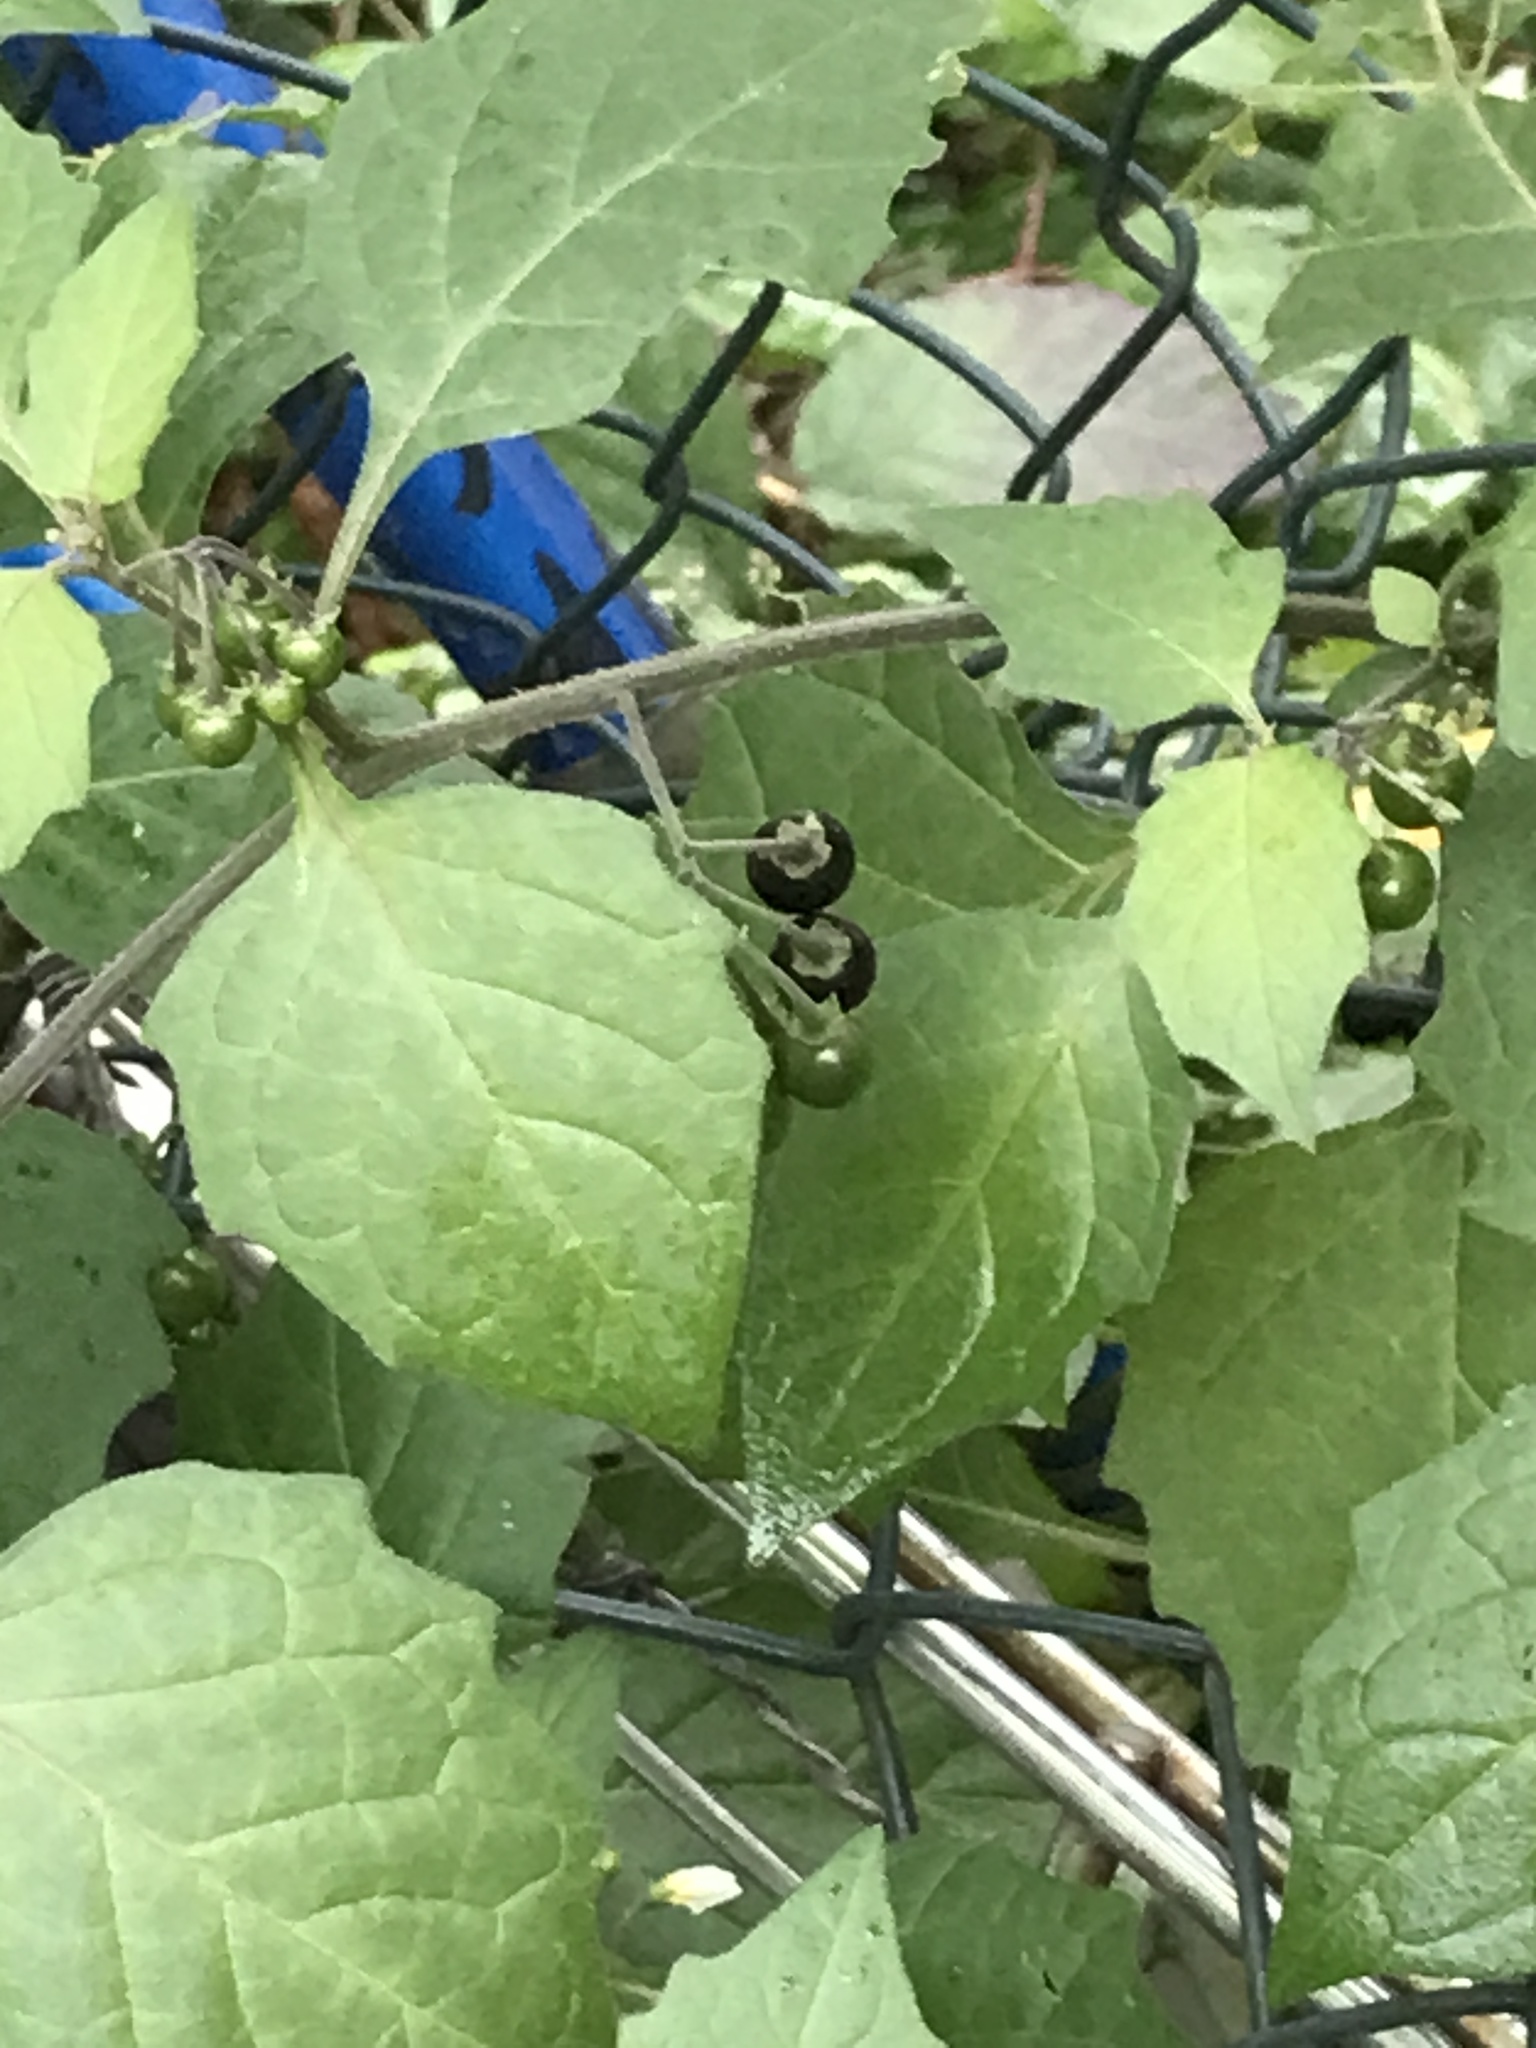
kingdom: Plantae
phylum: Tracheophyta
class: Magnoliopsida
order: Solanales
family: Solanaceae
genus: Solanum
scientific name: Solanum nigrum
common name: Black nightshade
